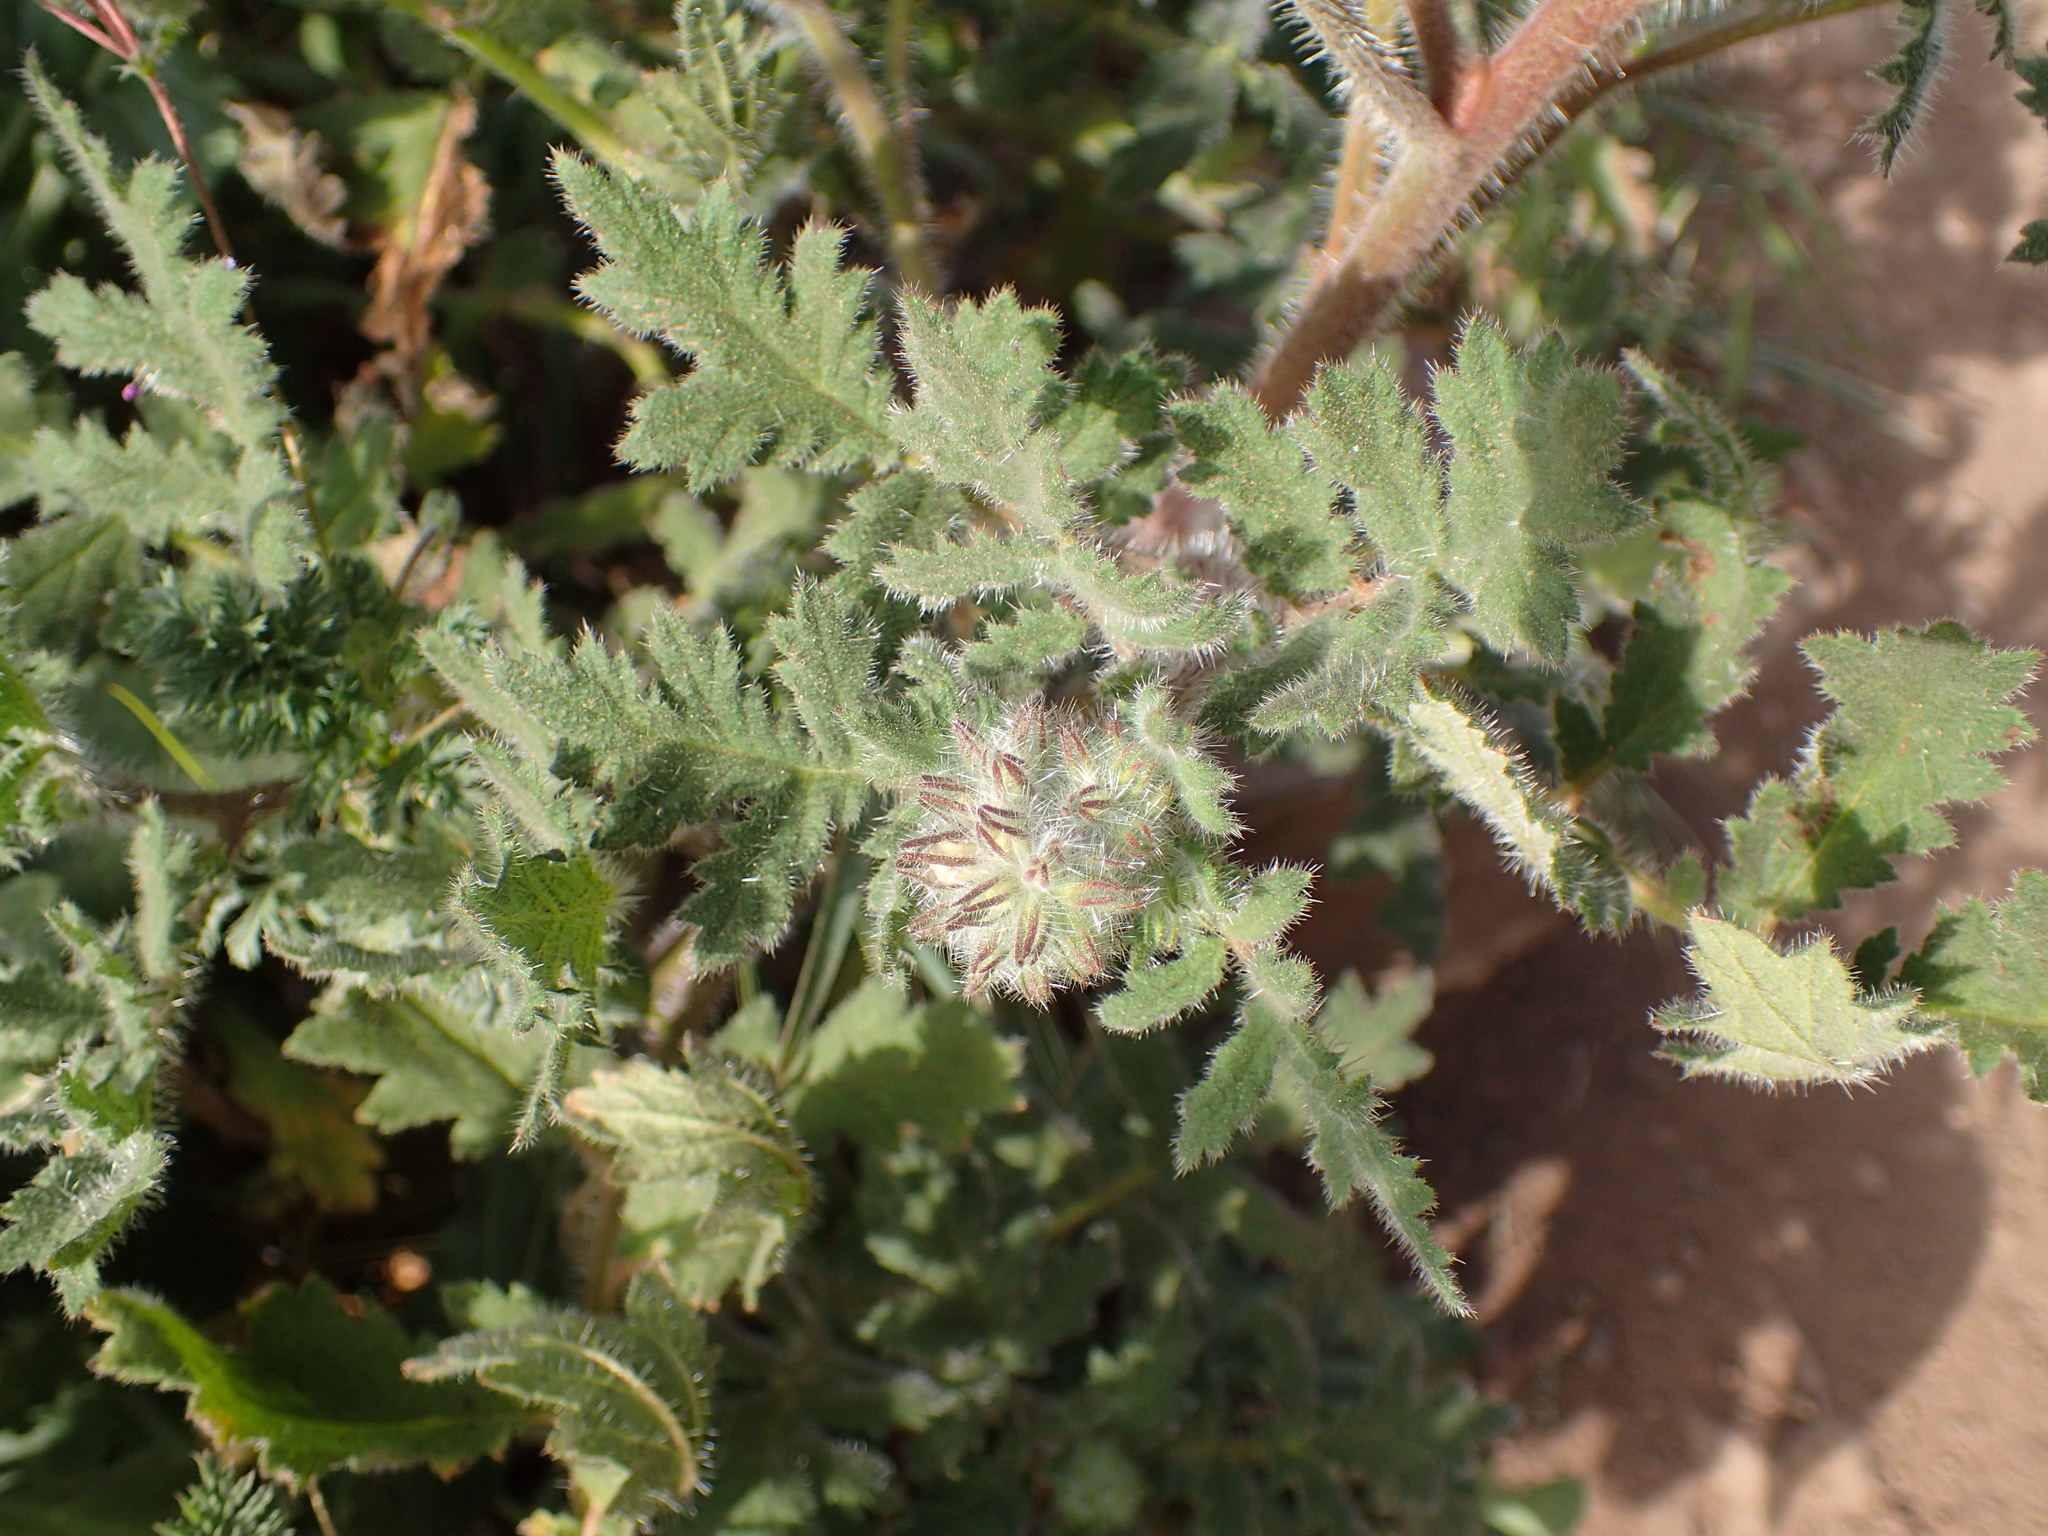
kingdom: Plantae
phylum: Tracheophyta
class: Magnoliopsida
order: Boraginales
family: Hydrophyllaceae
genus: Phacelia
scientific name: Phacelia cicutaria
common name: Caterpillar phacelia
